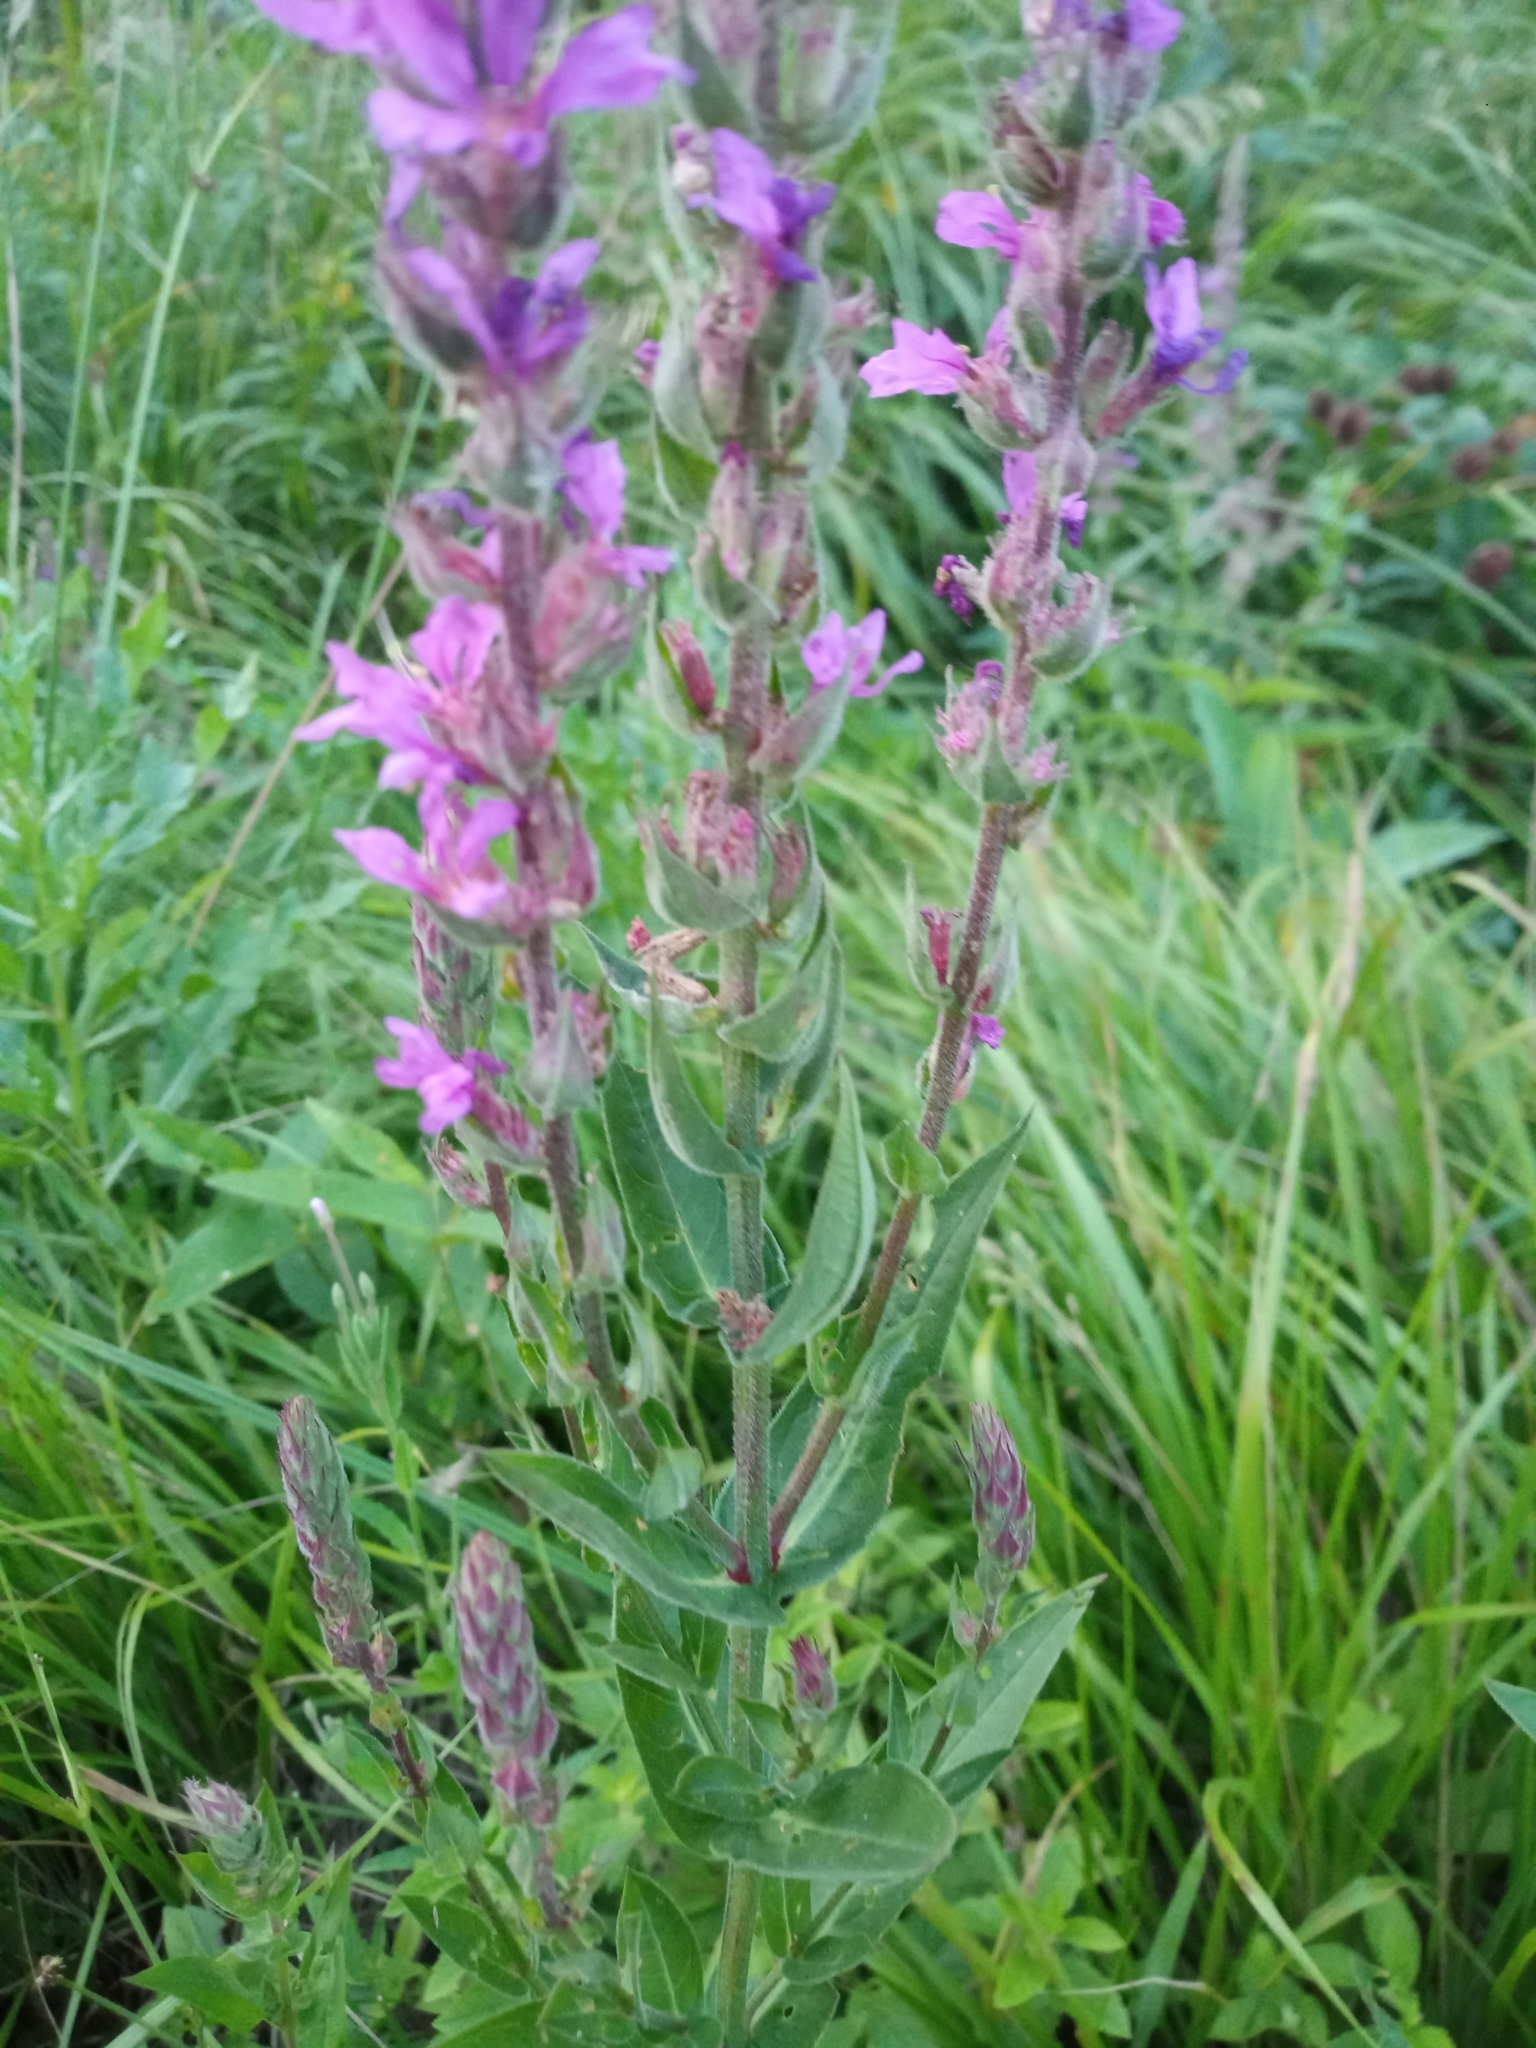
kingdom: Plantae
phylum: Tracheophyta
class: Magnoliopsida
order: Myrtales
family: Lythraceae
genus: Lythrum
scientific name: Lythrum salicaria
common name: Purple loosestrife
